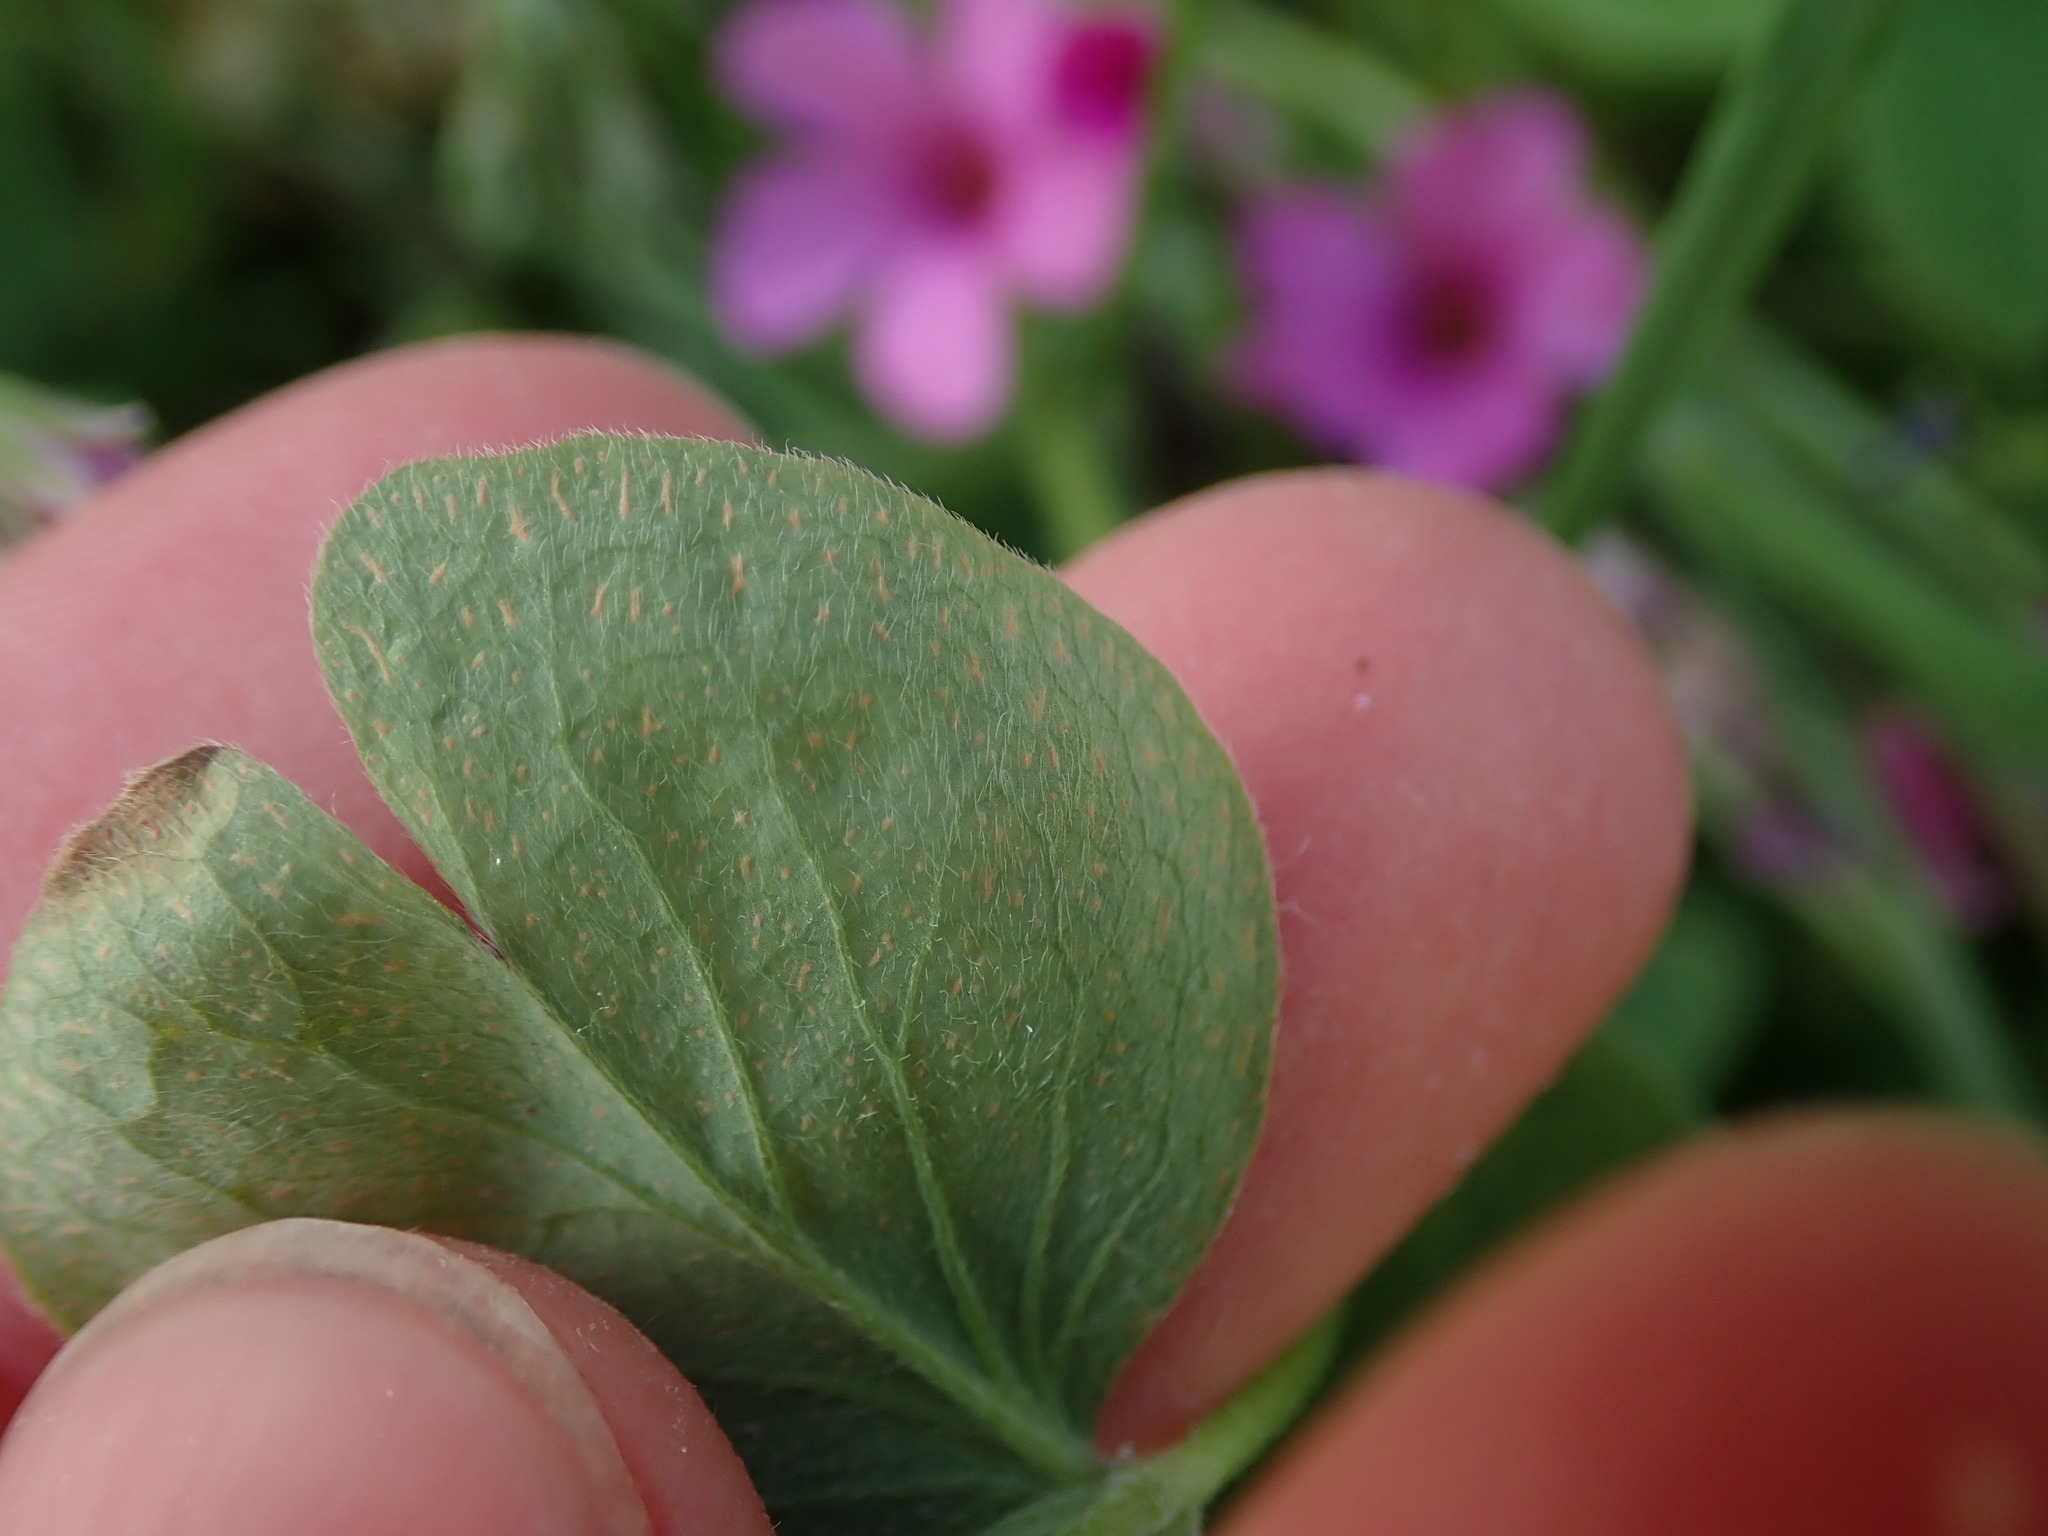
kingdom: Plantae
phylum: Tracheophyta
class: Magnoliopsida
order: Oxalidales
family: Oxalidaceae
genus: Oxalis
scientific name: Oxalis articulata
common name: Pink-sorrel
